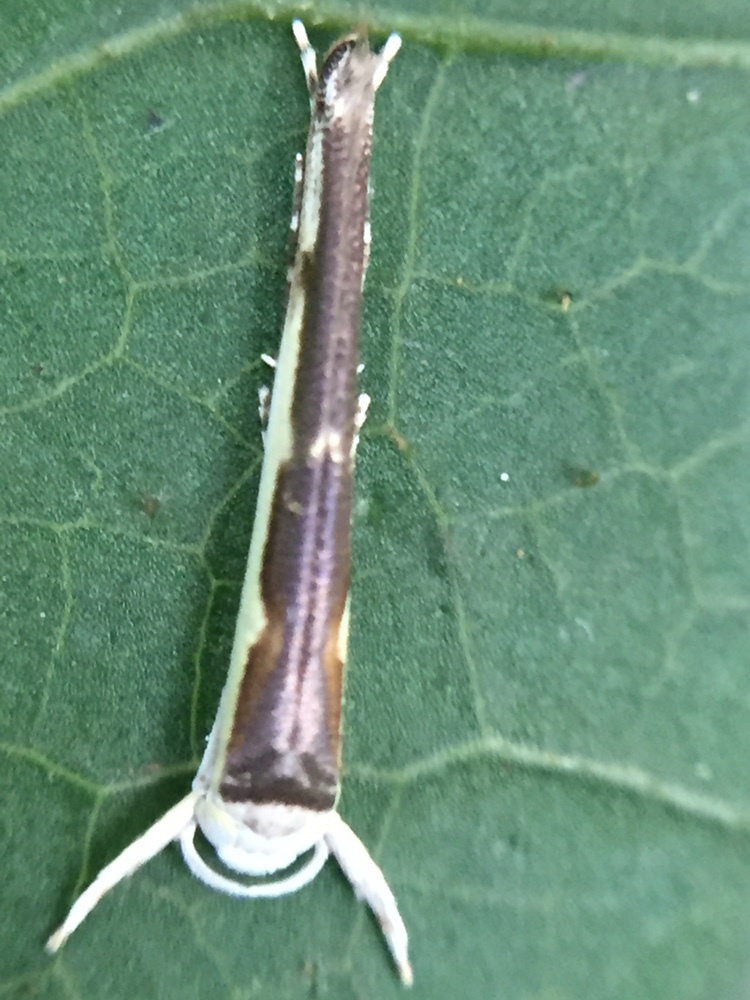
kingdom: Animalia
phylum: Arthropoda
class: Insecta
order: Lepidoptera
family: Roeslerstammiidae
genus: Vanicela
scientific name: Vanicela disjunctella
